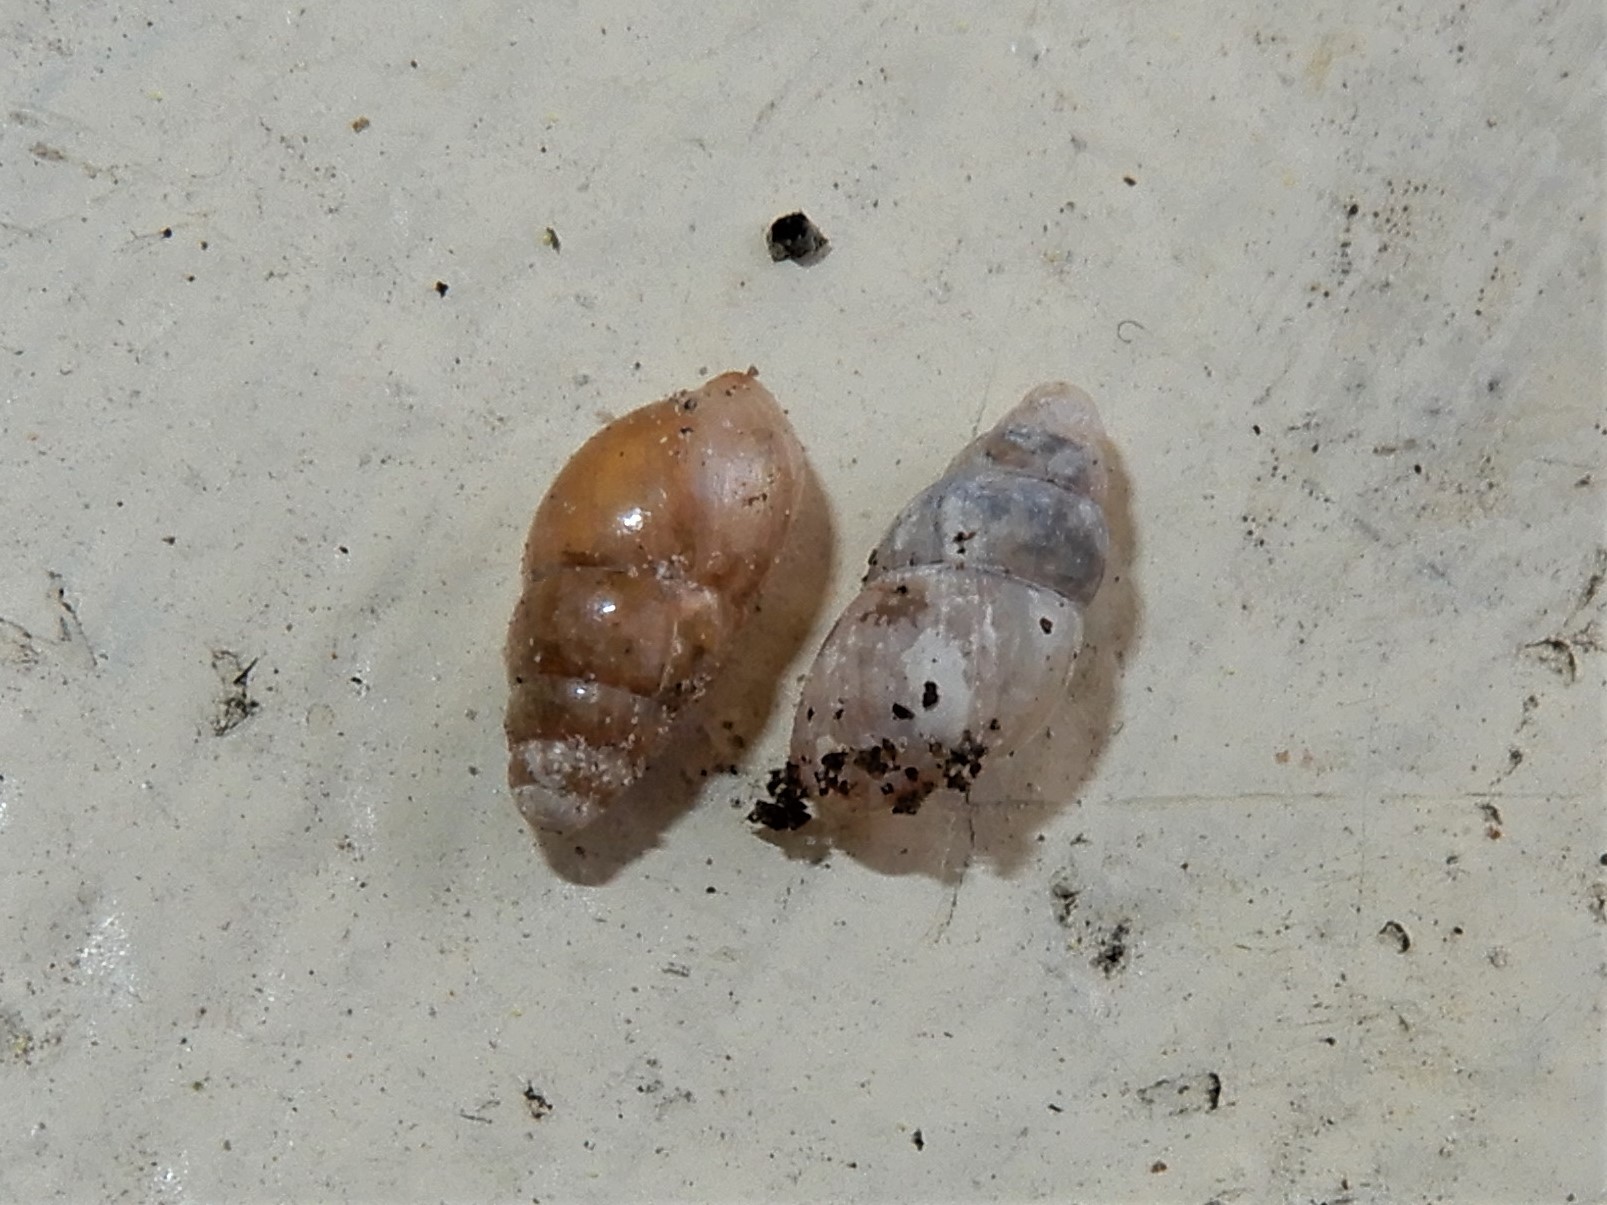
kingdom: Animalia
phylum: Mollusca
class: Gastropoda
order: Stylommatophora
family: Cochlicopidae
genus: Cochlicopa
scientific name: Cochlicopa lubrica
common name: Glossy pillar snail
